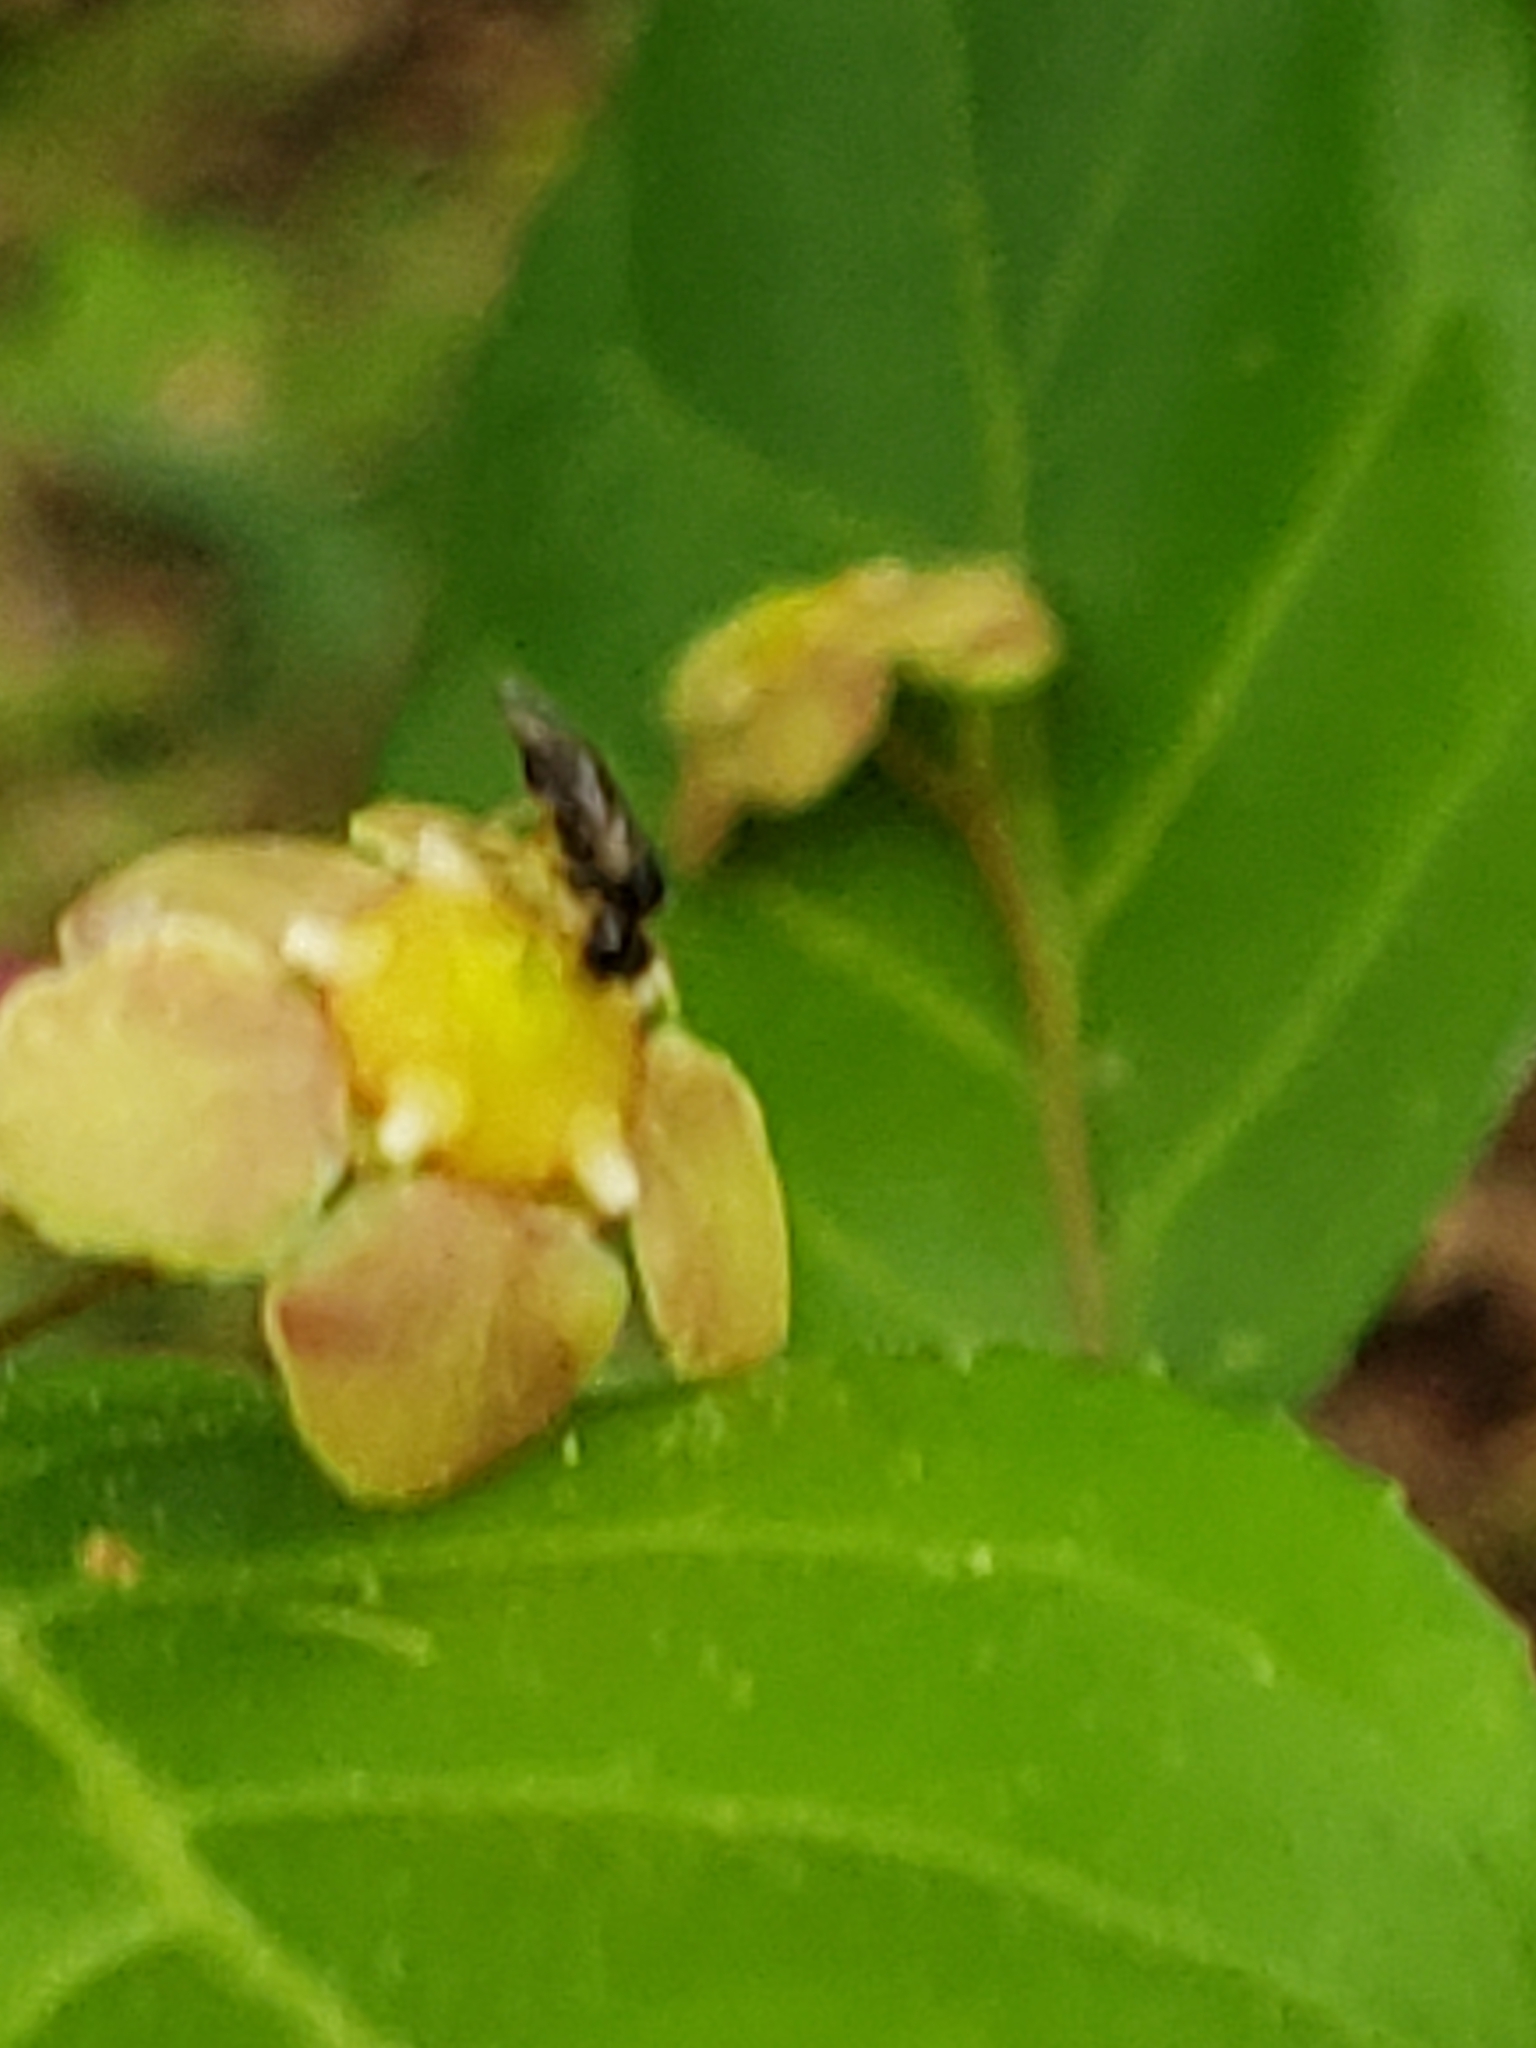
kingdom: Plantae
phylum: Tracheophyta
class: Magnoliopsida
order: Celastrales
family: Celastraceae
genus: Euonymus
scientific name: Euonymus americanus
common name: Bursting-heart
